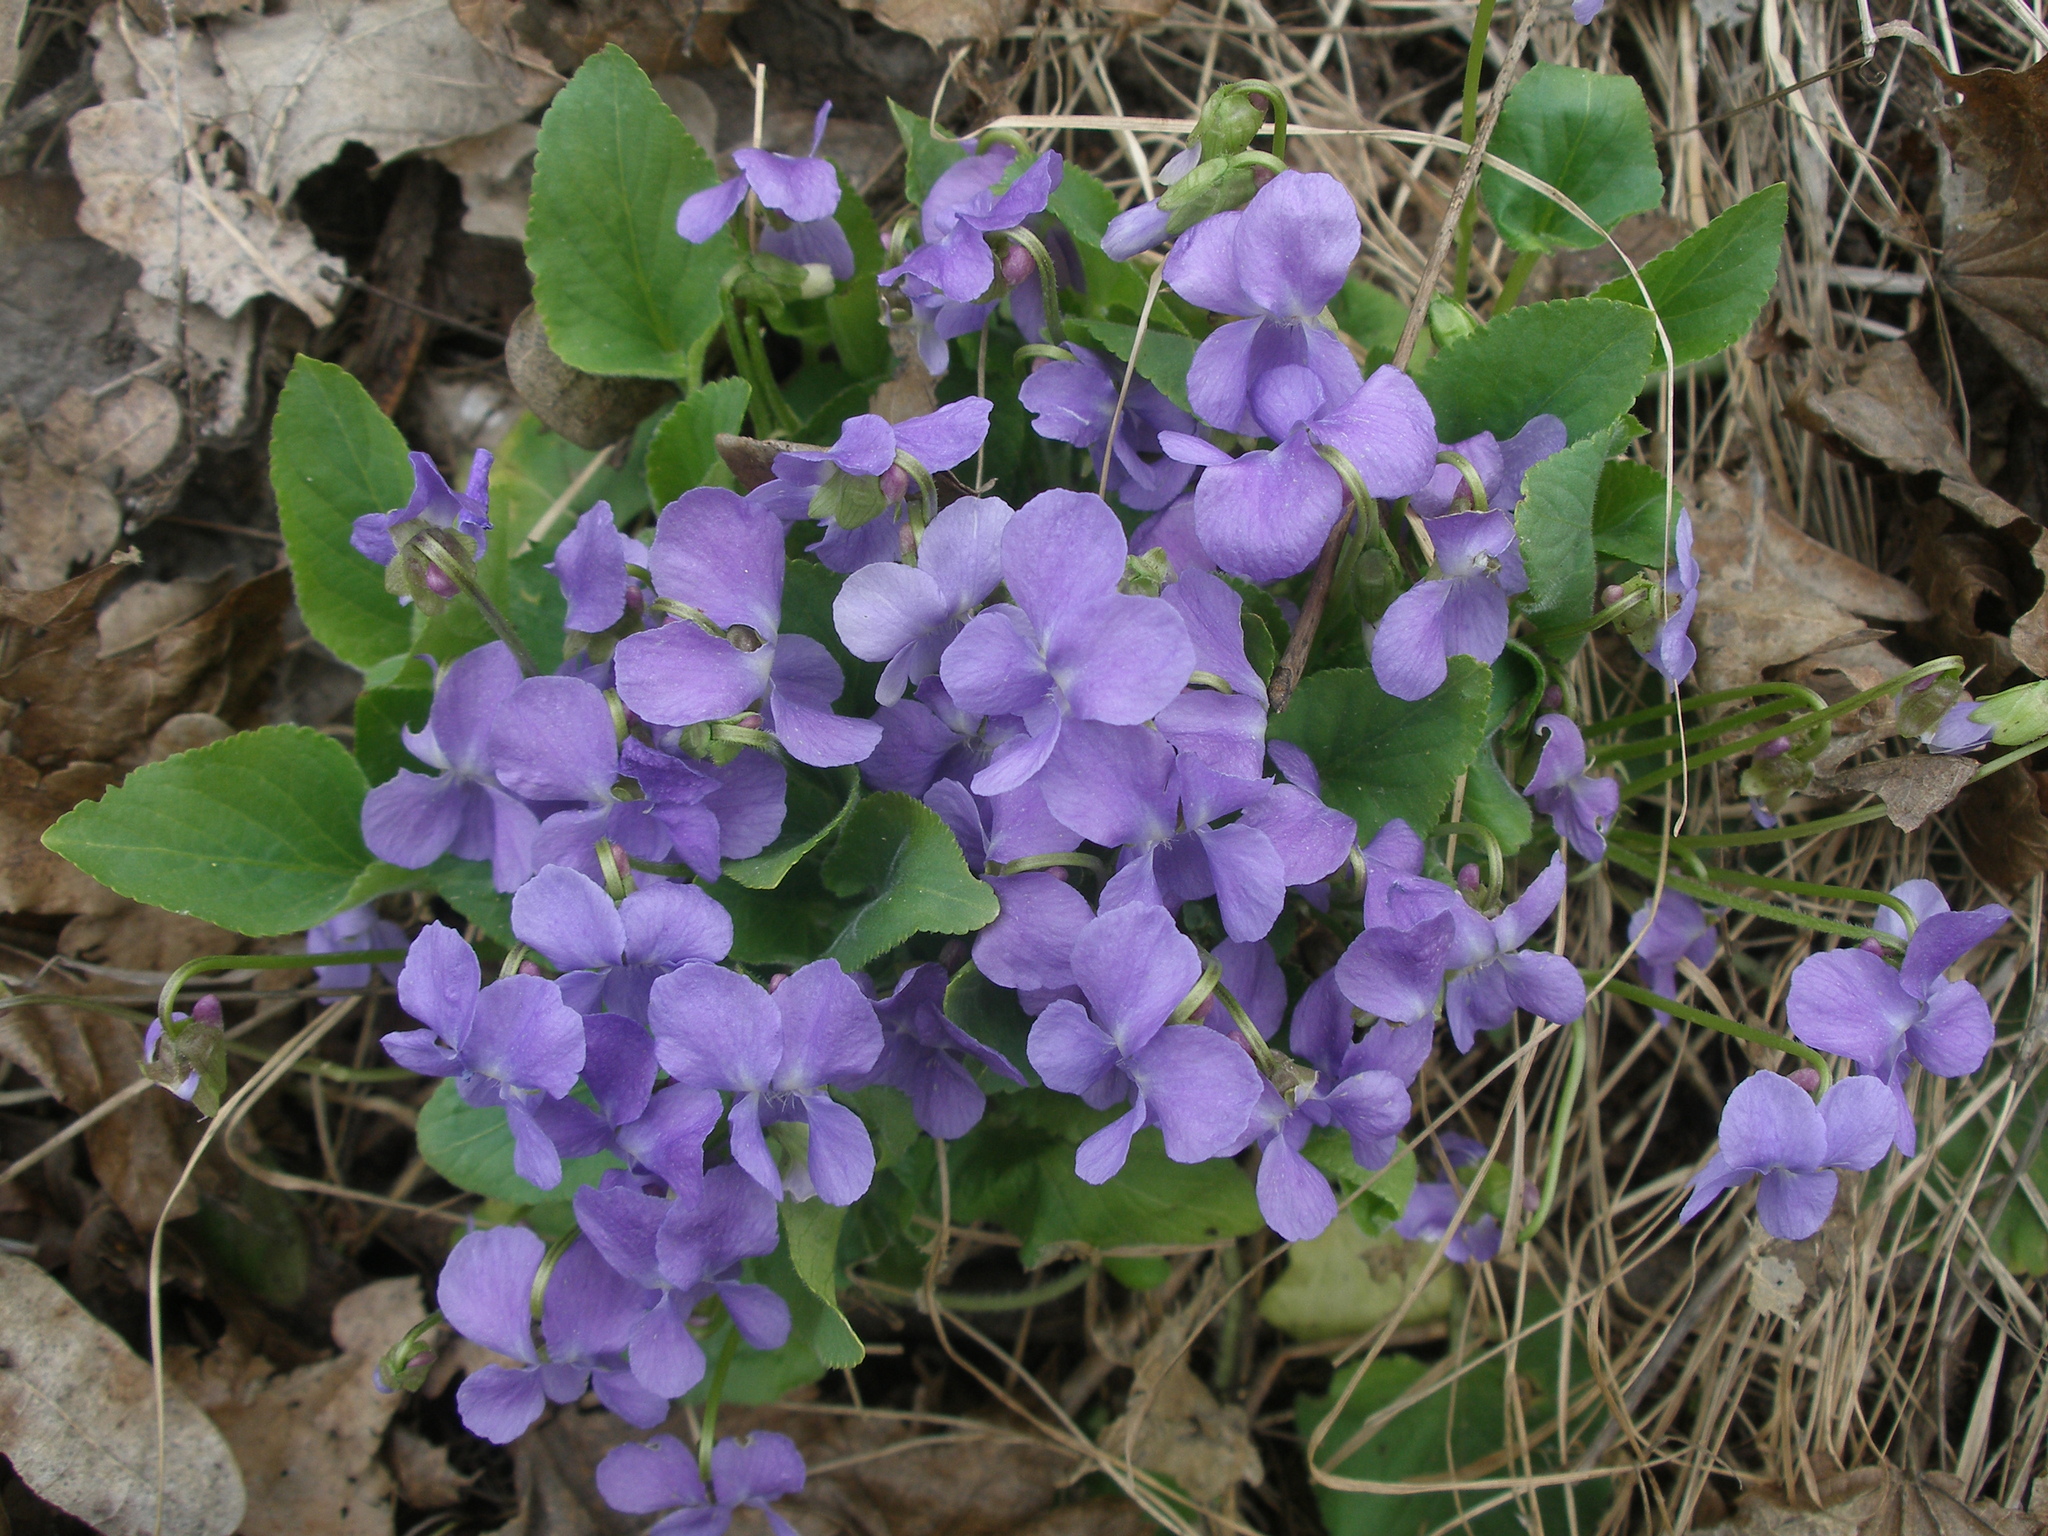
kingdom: Plantae
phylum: Tracheophyta
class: Magnoliopsida
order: Malpighiales
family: Violaceae
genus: Viola
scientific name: Viola hirta
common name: Hairy violet
